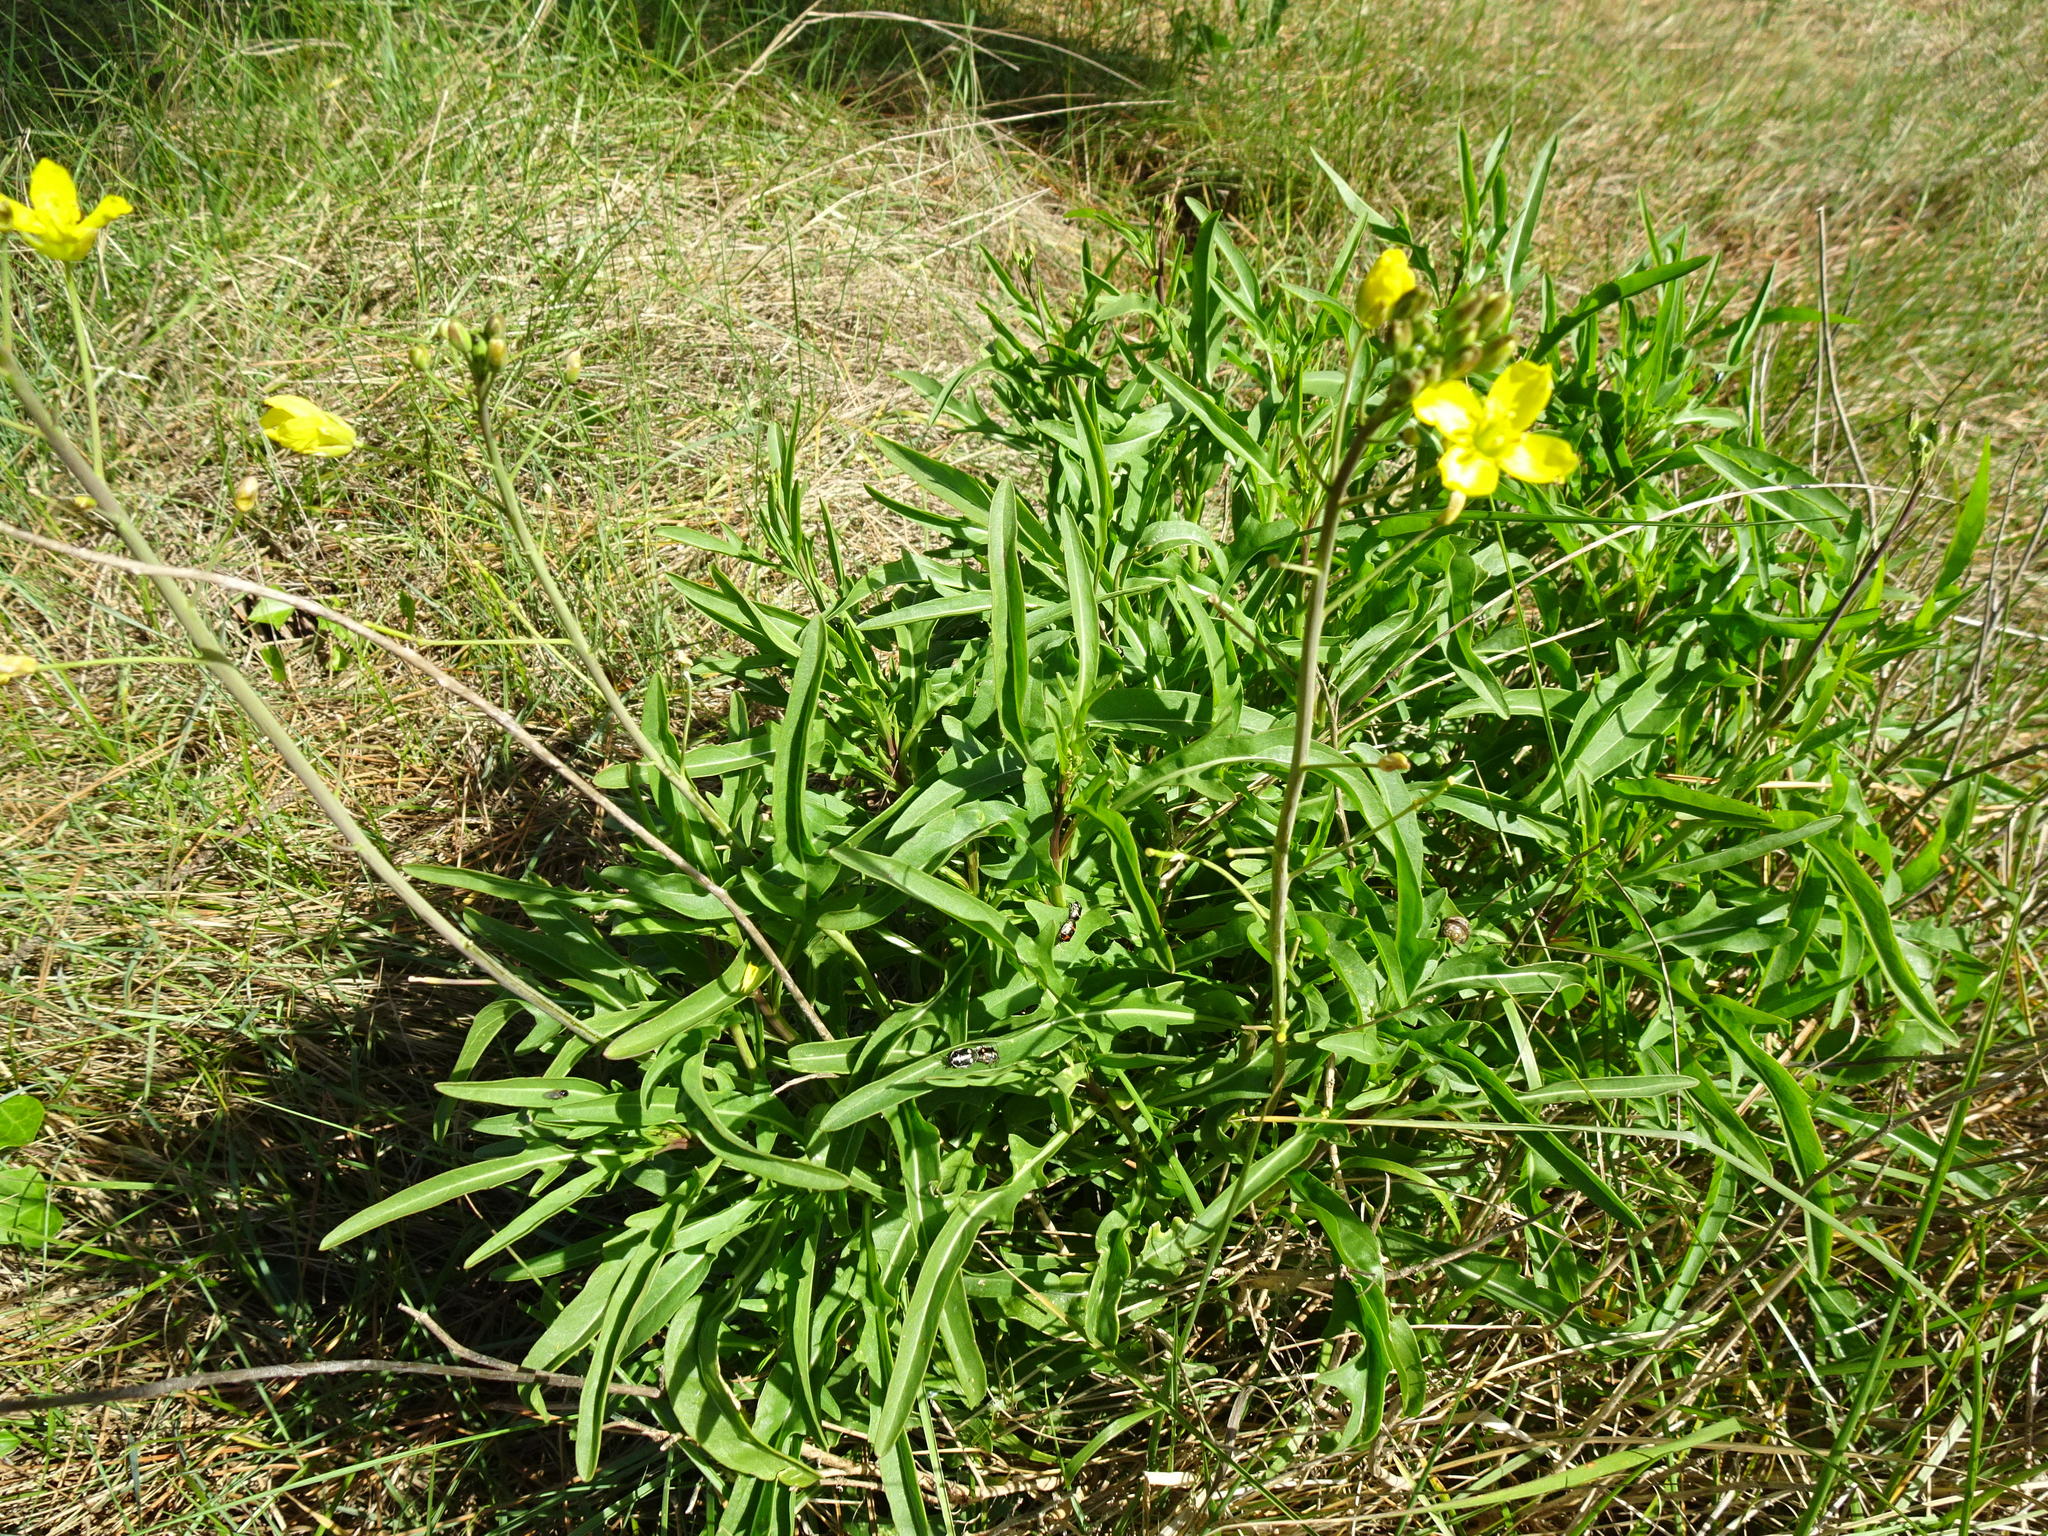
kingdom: Plantae
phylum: Tracheophyta
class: Magnoliopsida
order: Brassicales
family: Brassicaceae
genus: Diplotaxis
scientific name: Diplotaxis tenuifolia
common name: Perennial wall-rocket
